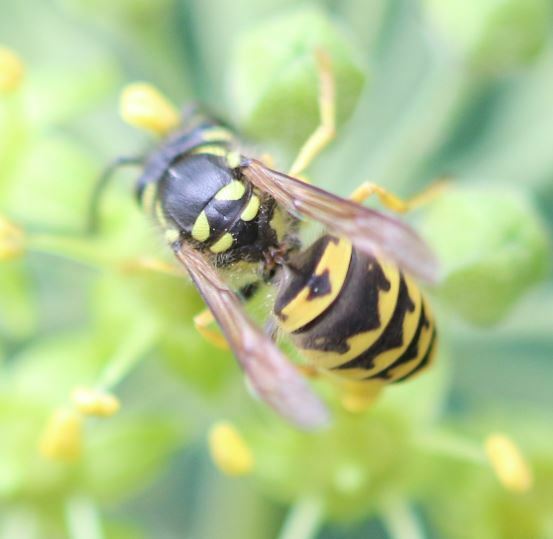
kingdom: Animalia
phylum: Arthropoda
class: Insecta
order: Hymenoptera
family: Vespidae
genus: Vespula
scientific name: Vespula germanica
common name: German wasp
